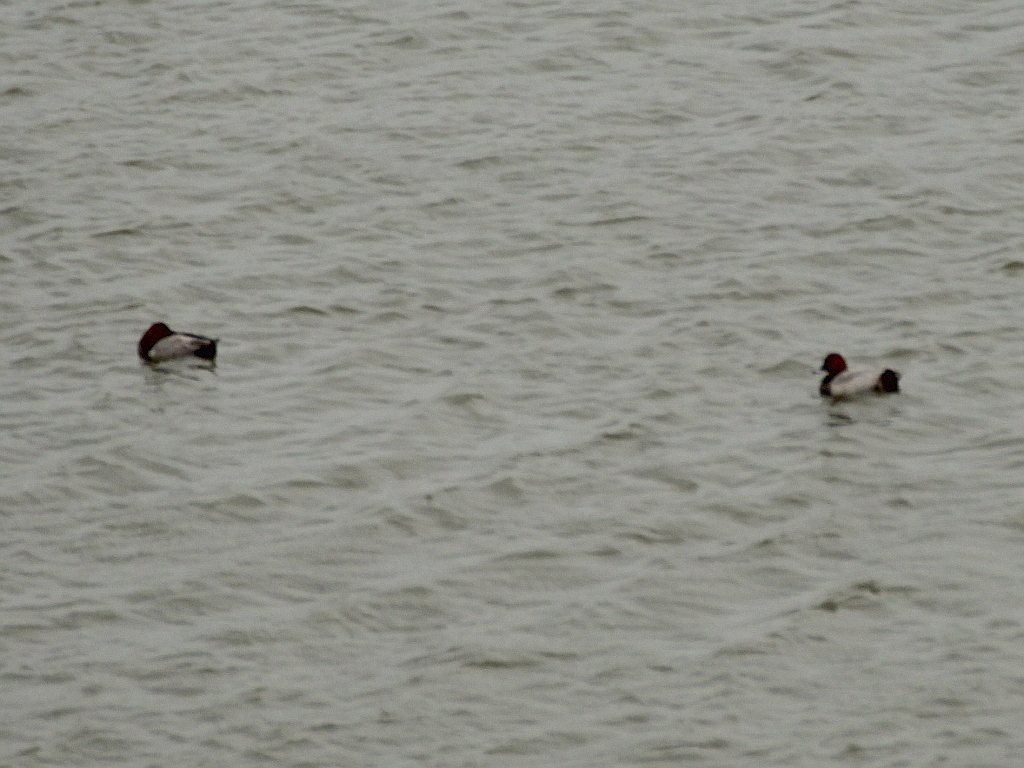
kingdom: Animalia
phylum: Chordata
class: Aves
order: Anseriformes
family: Anatidae
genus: Aythya
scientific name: Aythya ferina
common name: Common pochard
